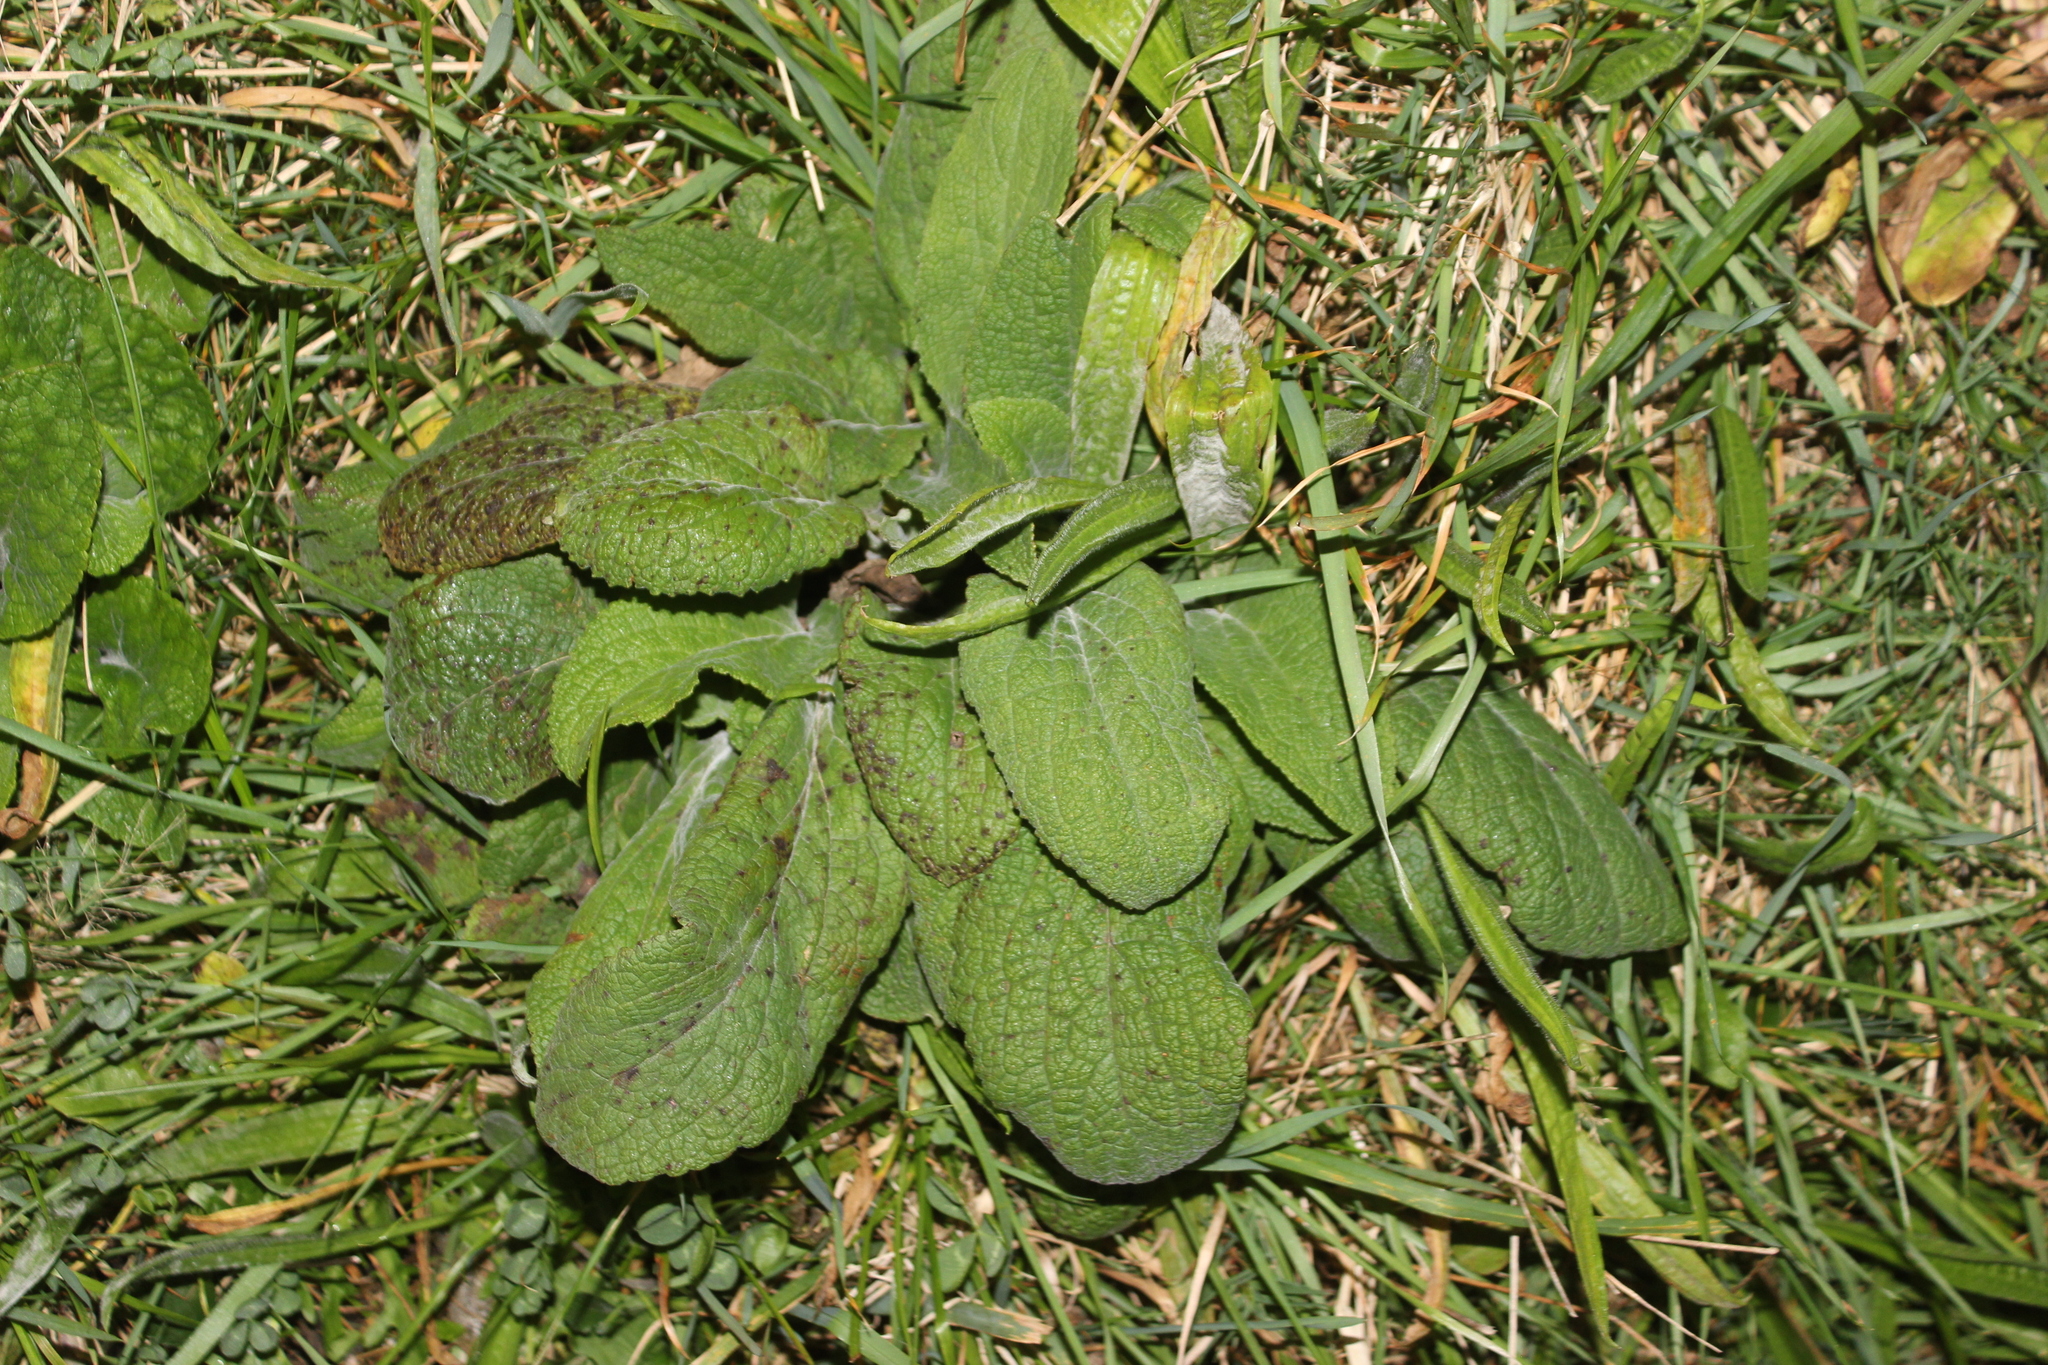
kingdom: Plantae
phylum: Tracheophyta
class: Magnoliopsida
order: Lamiales
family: Plantaginaceae
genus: Digitalis
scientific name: Digitalis purpurea
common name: Foxglove
